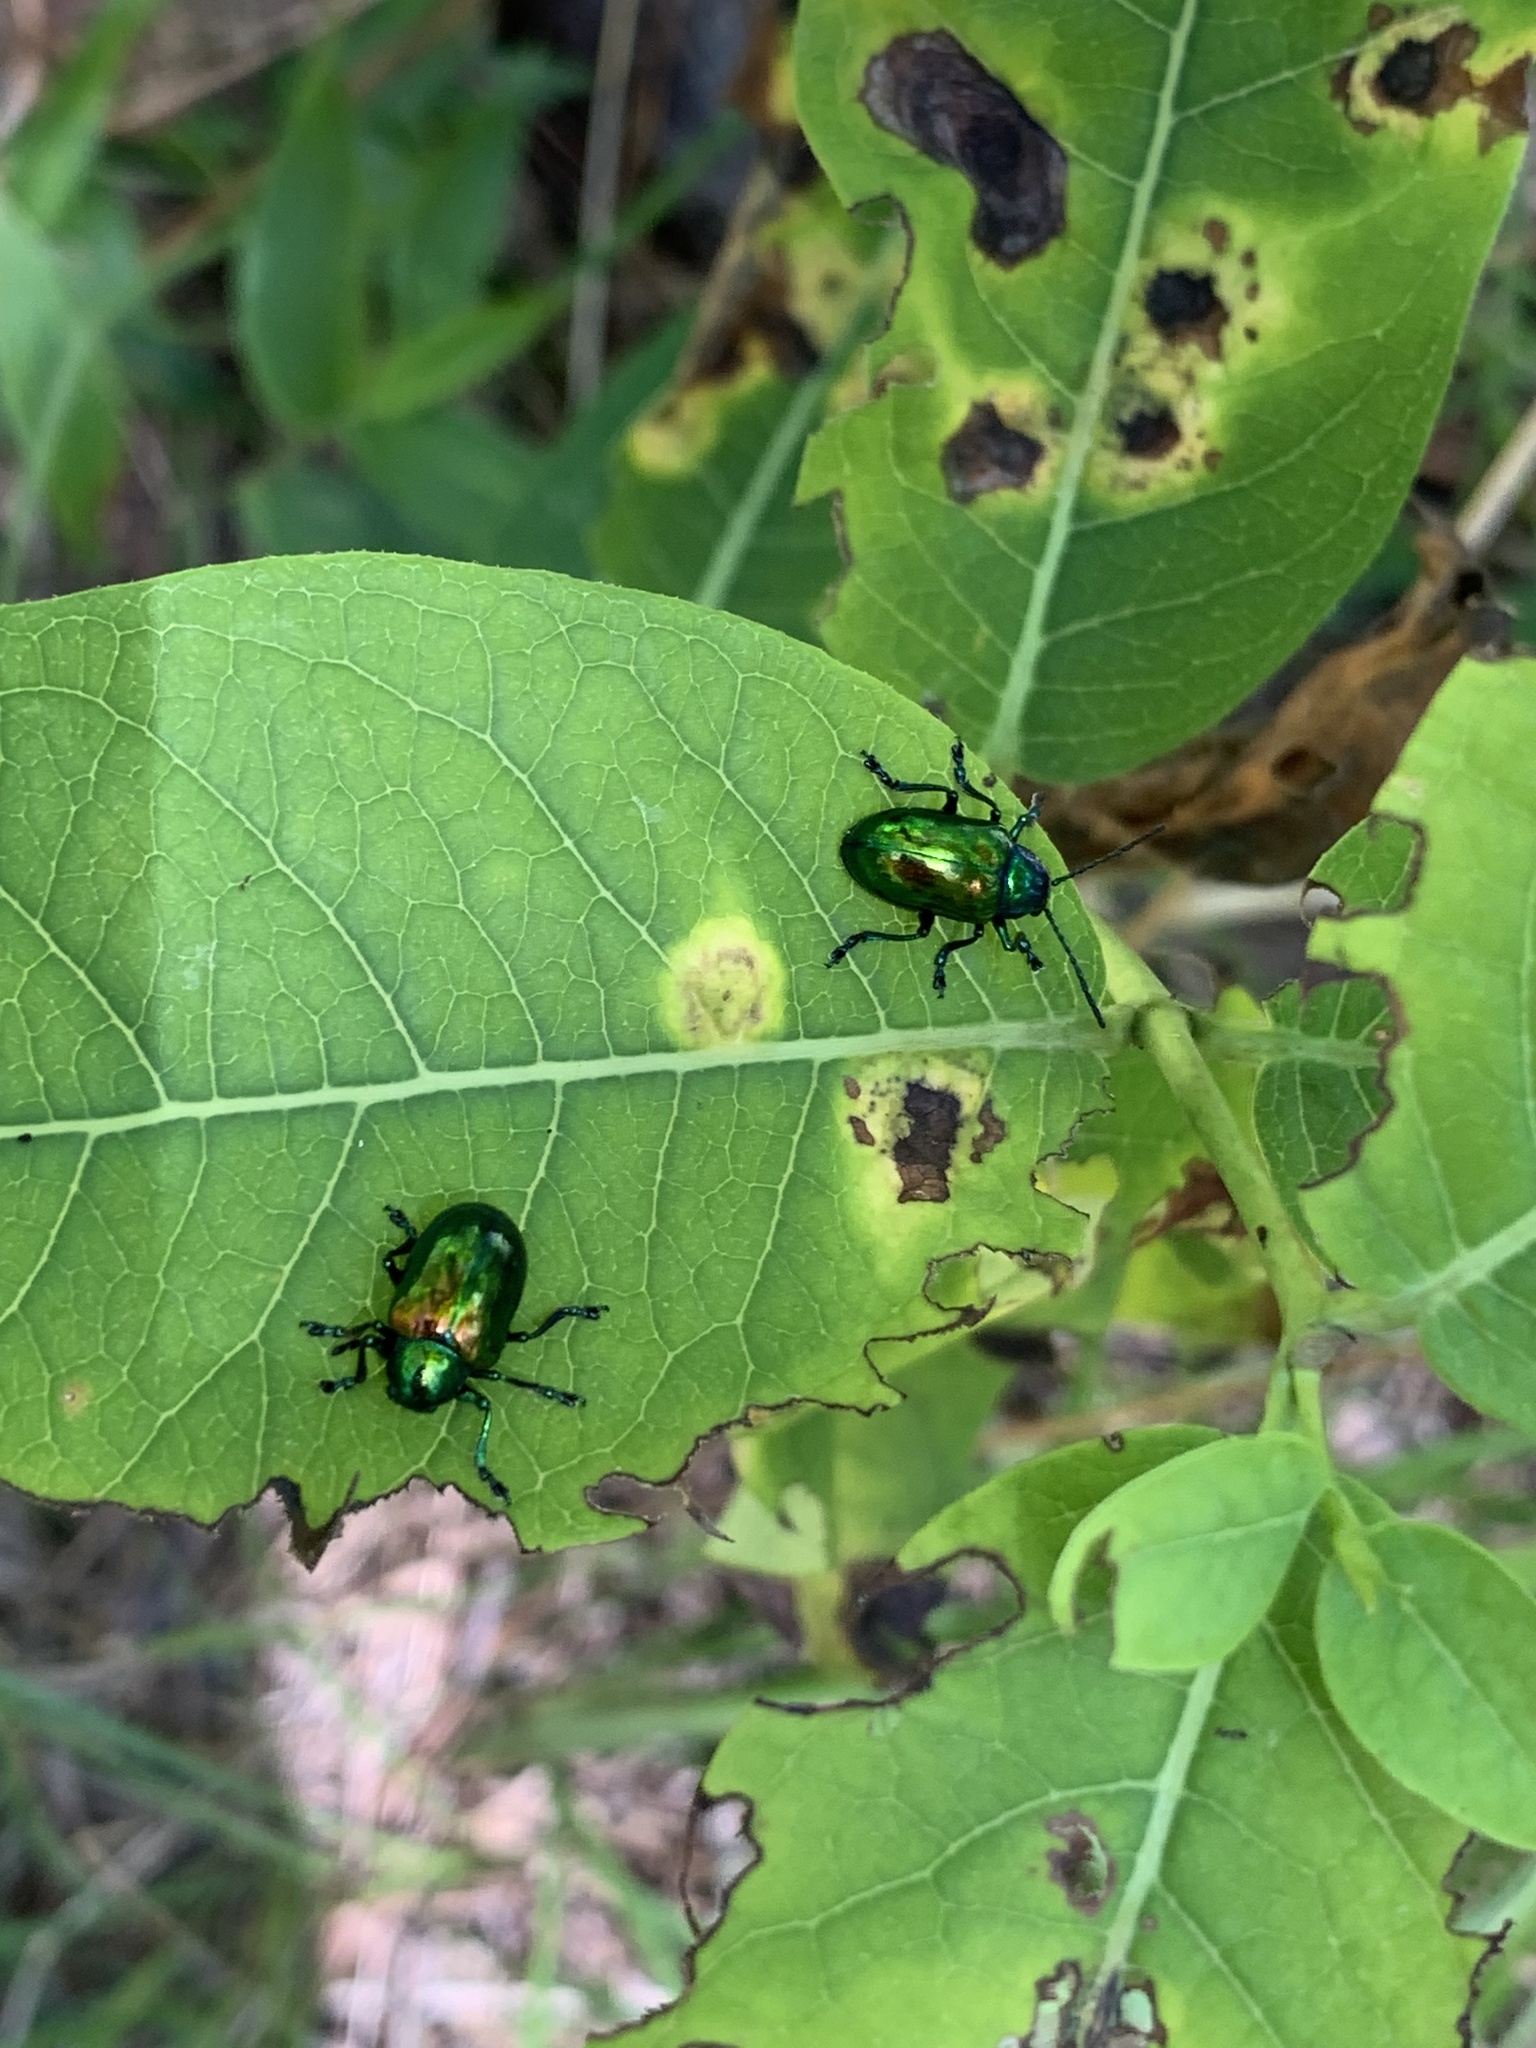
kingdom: Animalia
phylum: Arthropoda
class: Insecta
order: Coleoptera
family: Chrysomelidae
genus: Chrysochus
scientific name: Chrysochus auratus
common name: Dogbane leaf beetle
